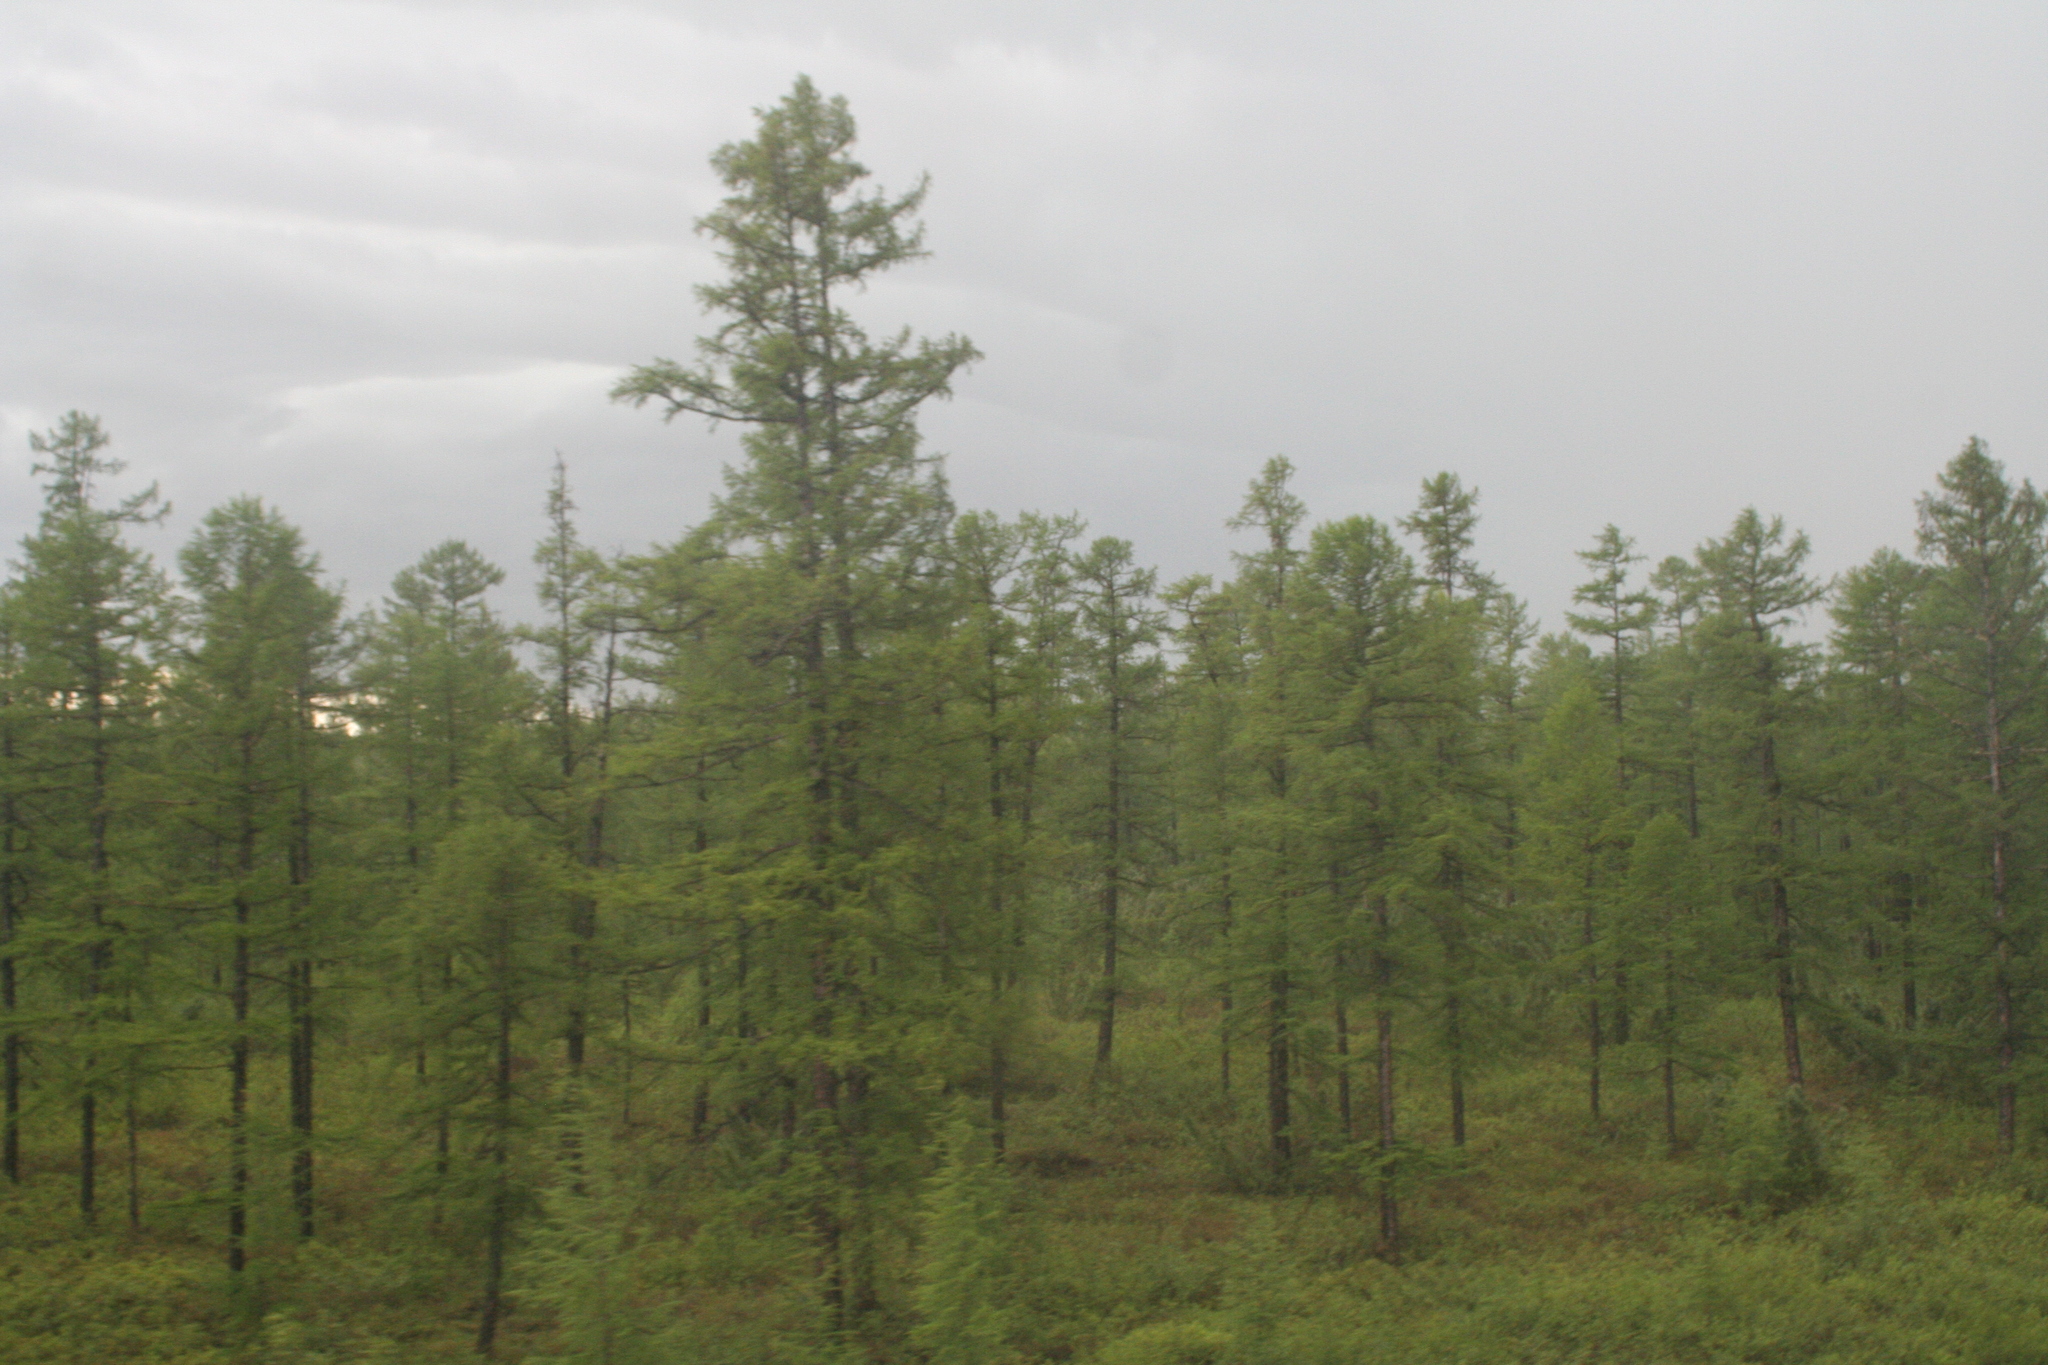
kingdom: Plantae
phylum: Tracheophyta
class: Pinopsida
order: Pinales
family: Pinaceae
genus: Larix
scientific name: Larix gmelinii
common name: Dahurian larch
